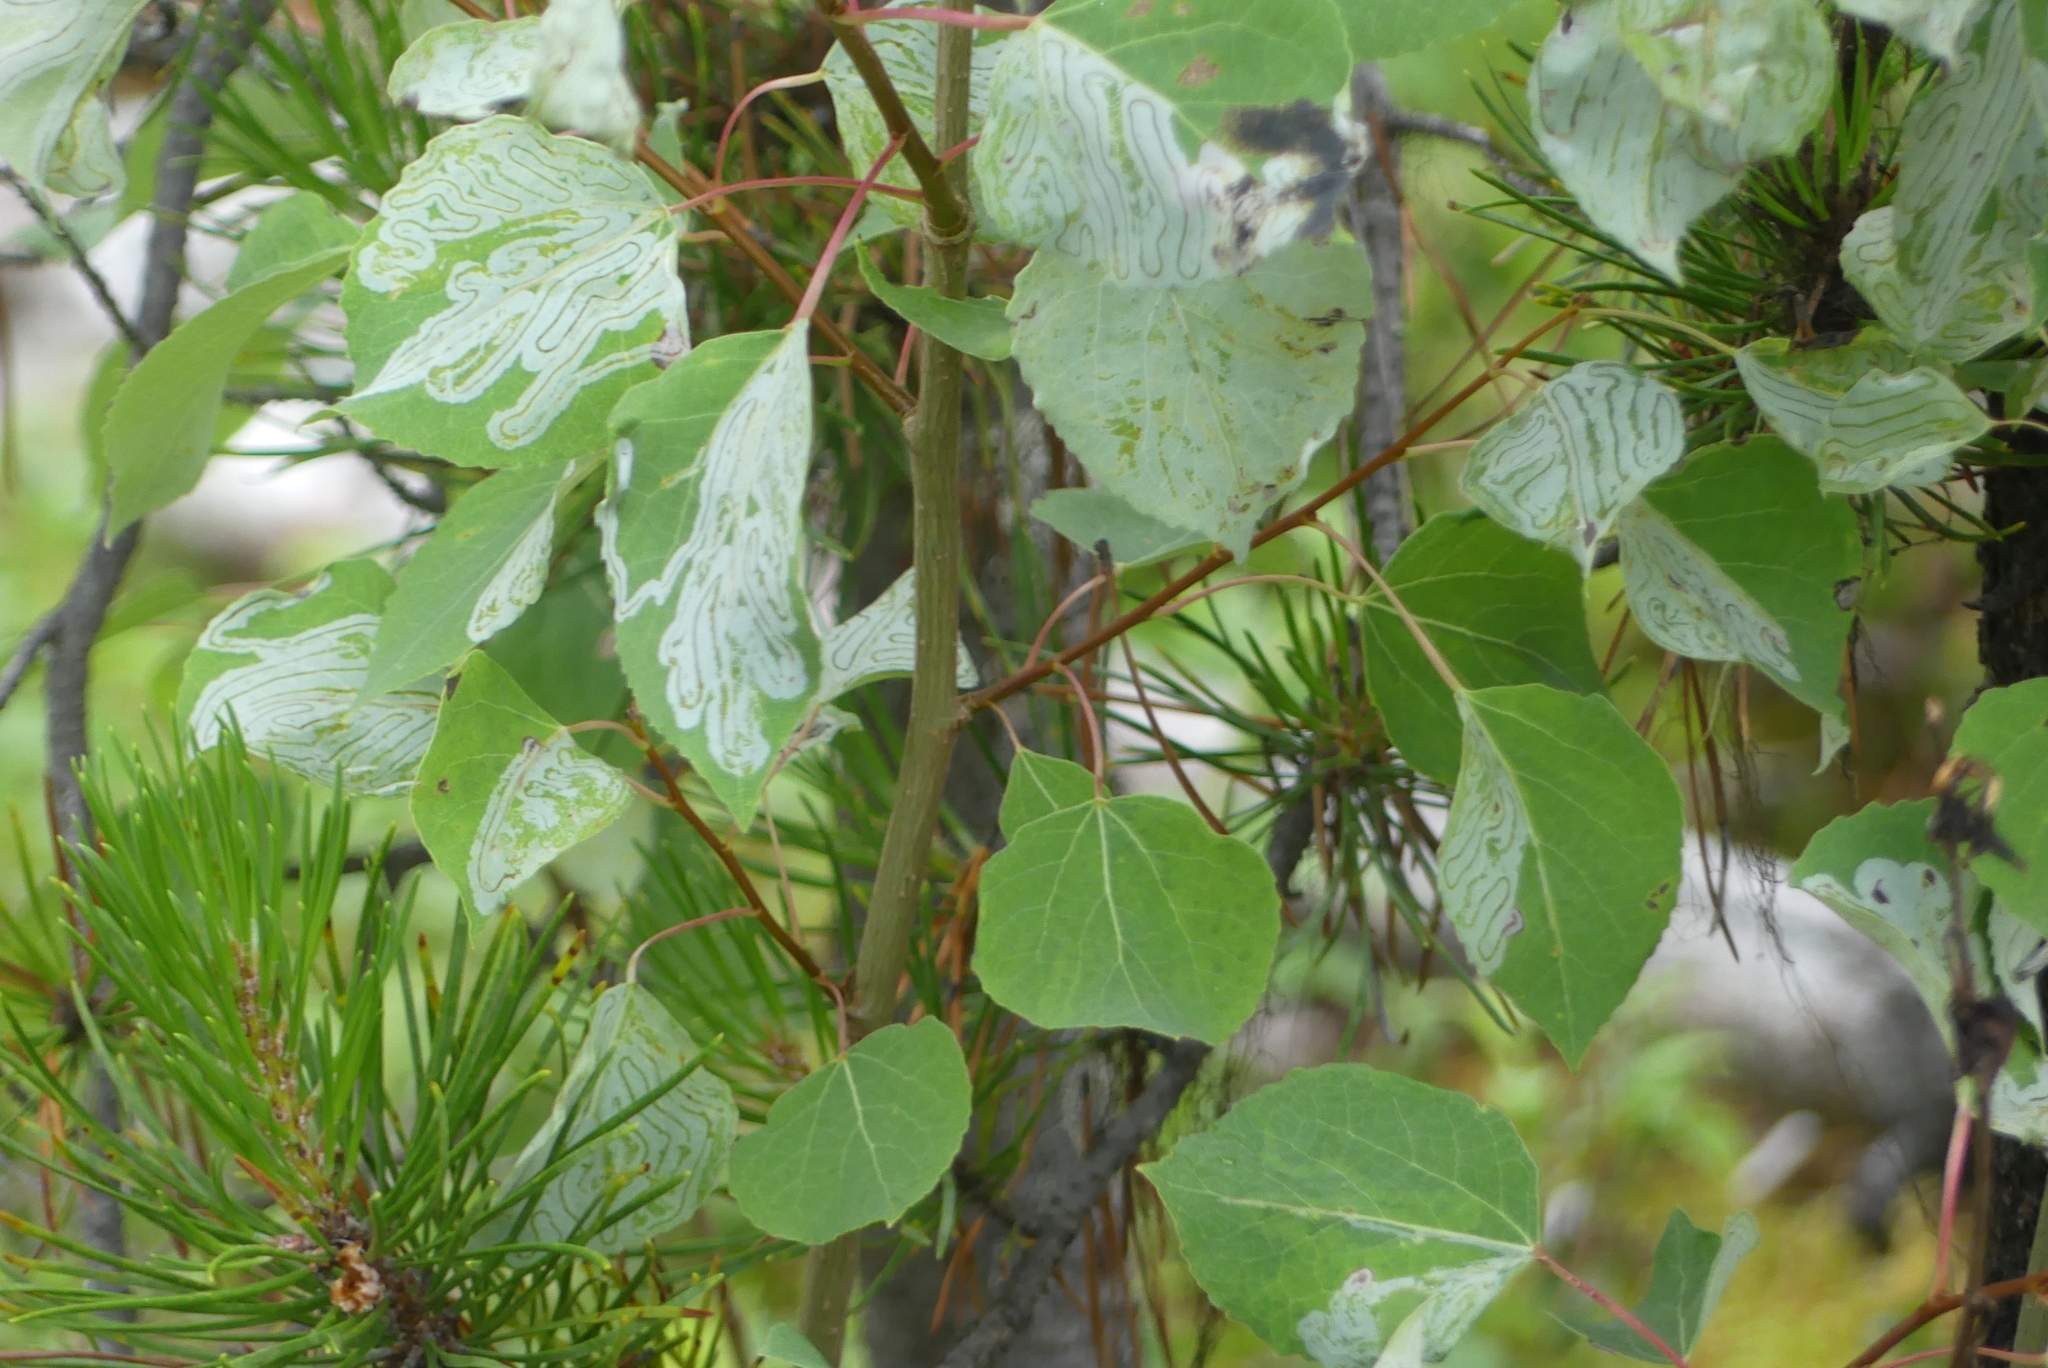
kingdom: Plantae
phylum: Tracheophyta
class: Magnoliopsida
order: Malpighiales
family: Salicaceae
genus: Populus
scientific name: Populus tremuloides
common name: Quaking aspen
